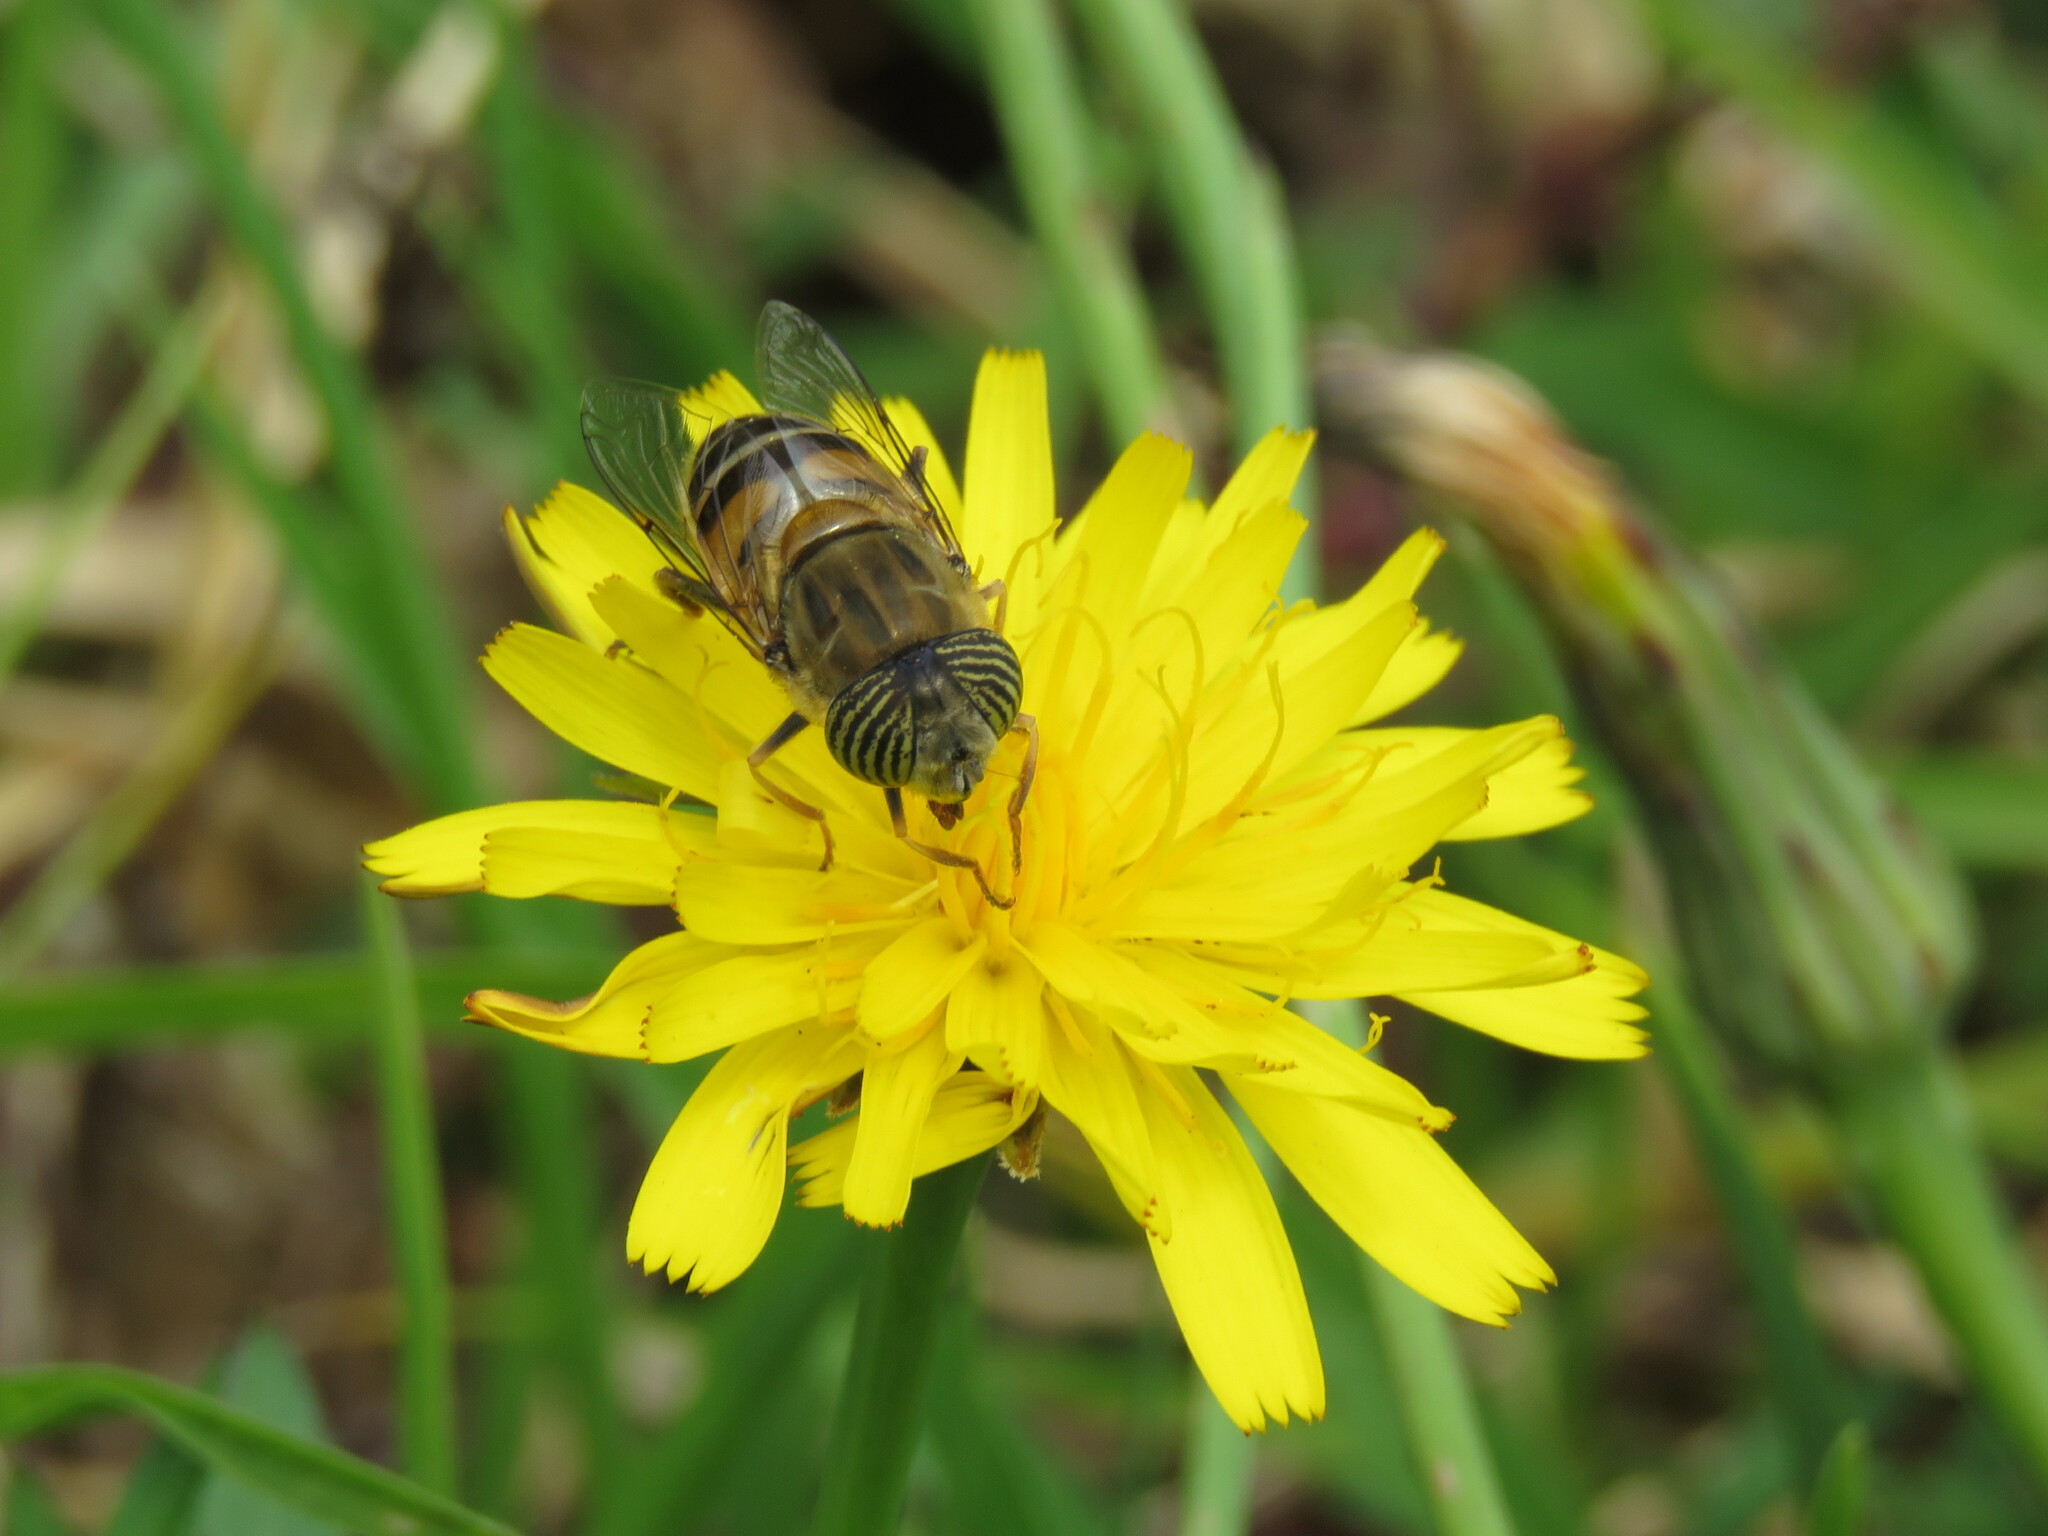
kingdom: Animalia
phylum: Arthropoda
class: Insecta
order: Diptera
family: Syrphidae
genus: Eristalinus
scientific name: Eristalinus taeniops
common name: Syrphid fly
